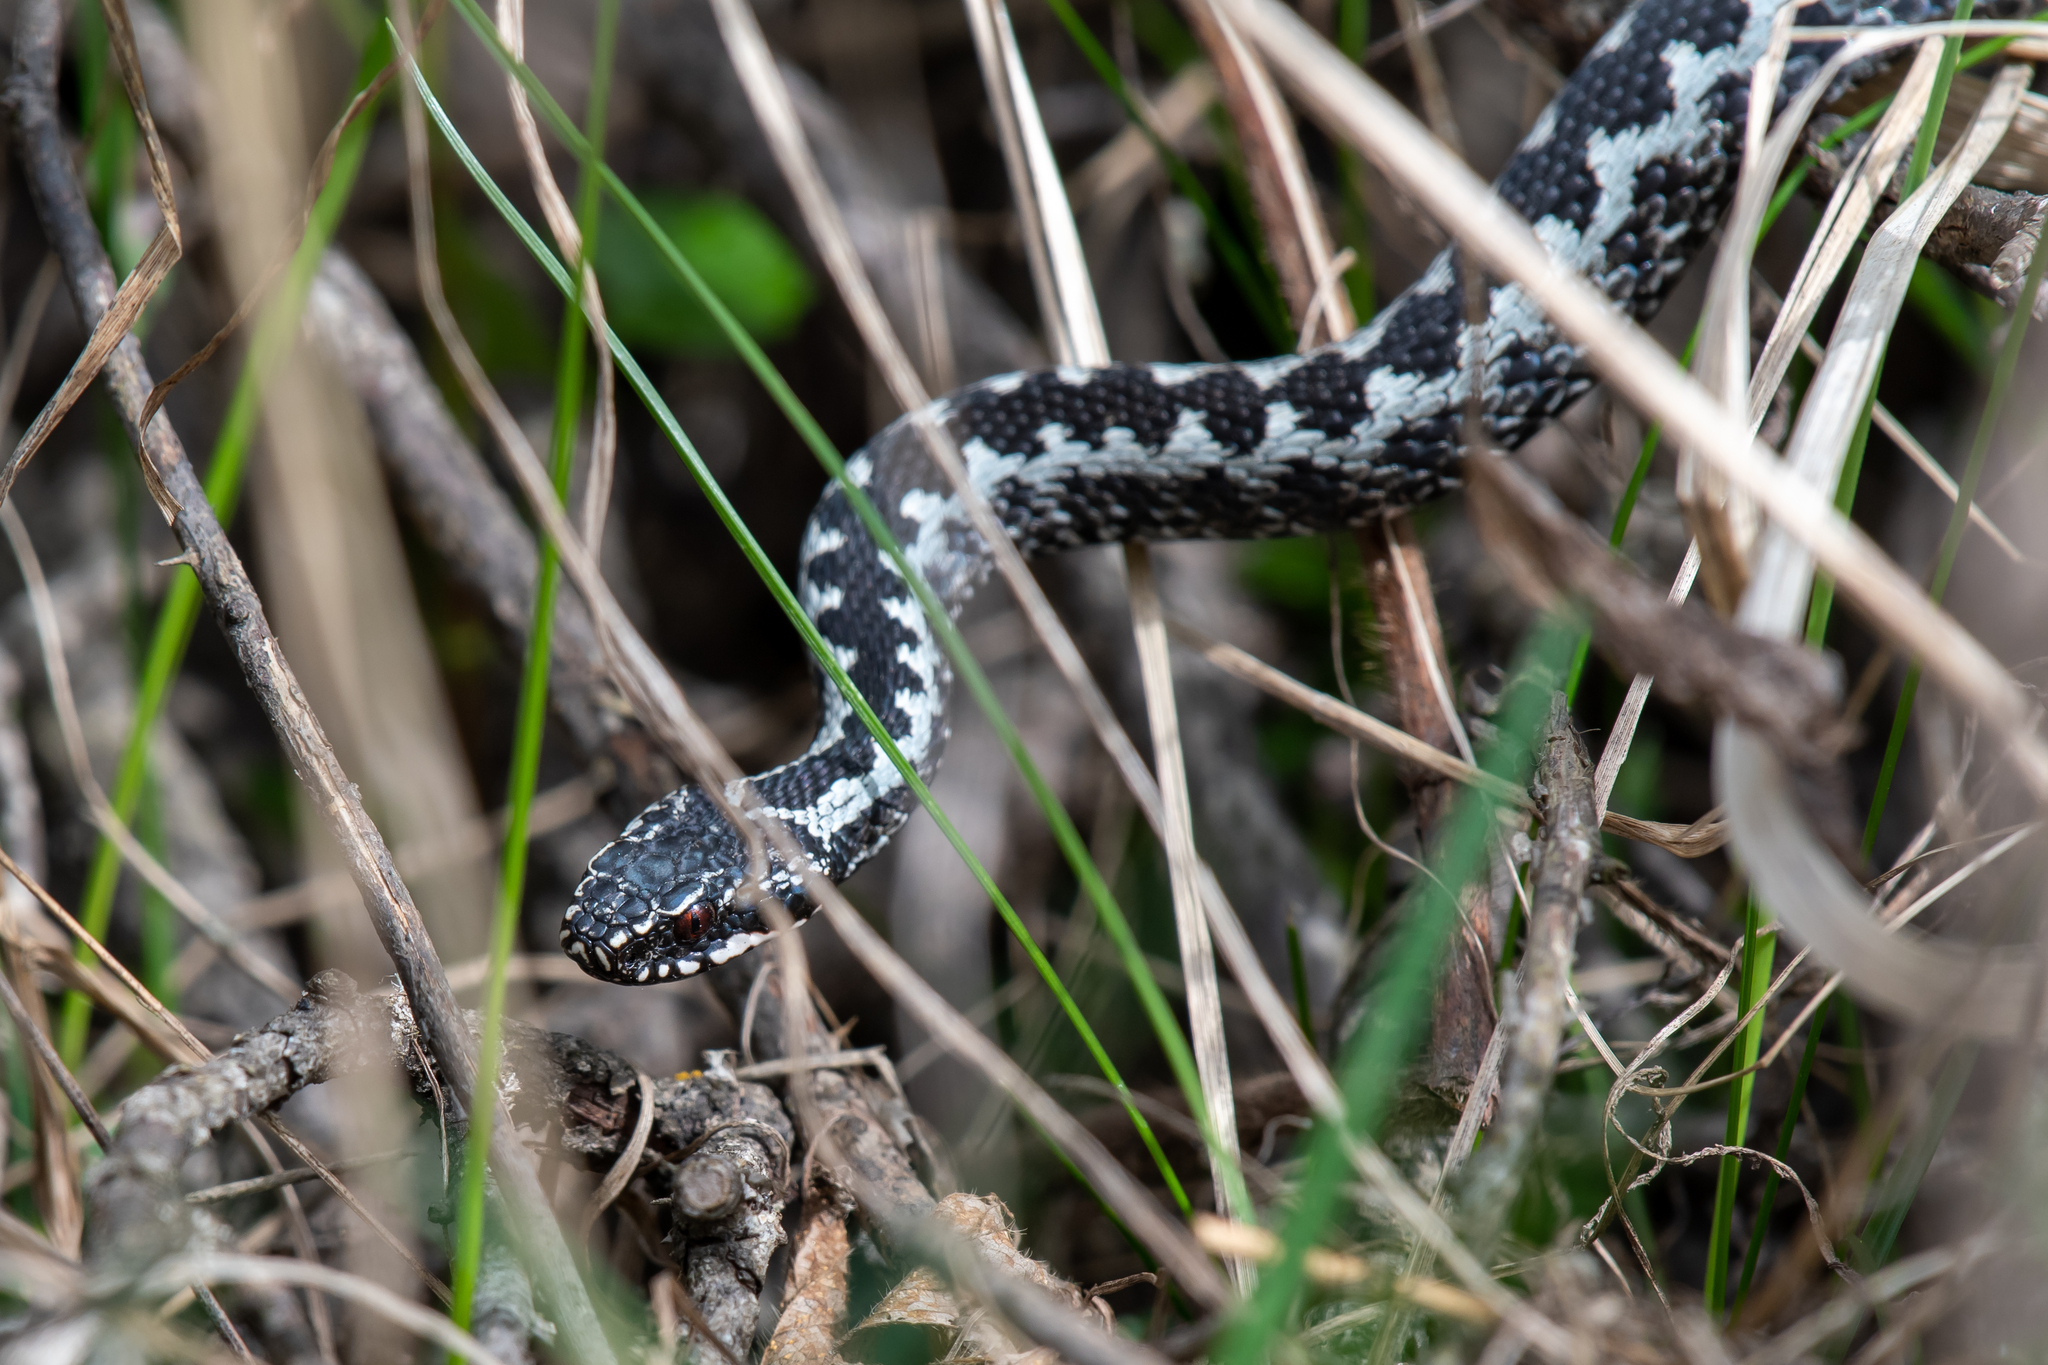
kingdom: Animalia
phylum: Chordata
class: Squamata
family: Viperidae
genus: Vipera
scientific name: Vipera berus
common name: Adder
